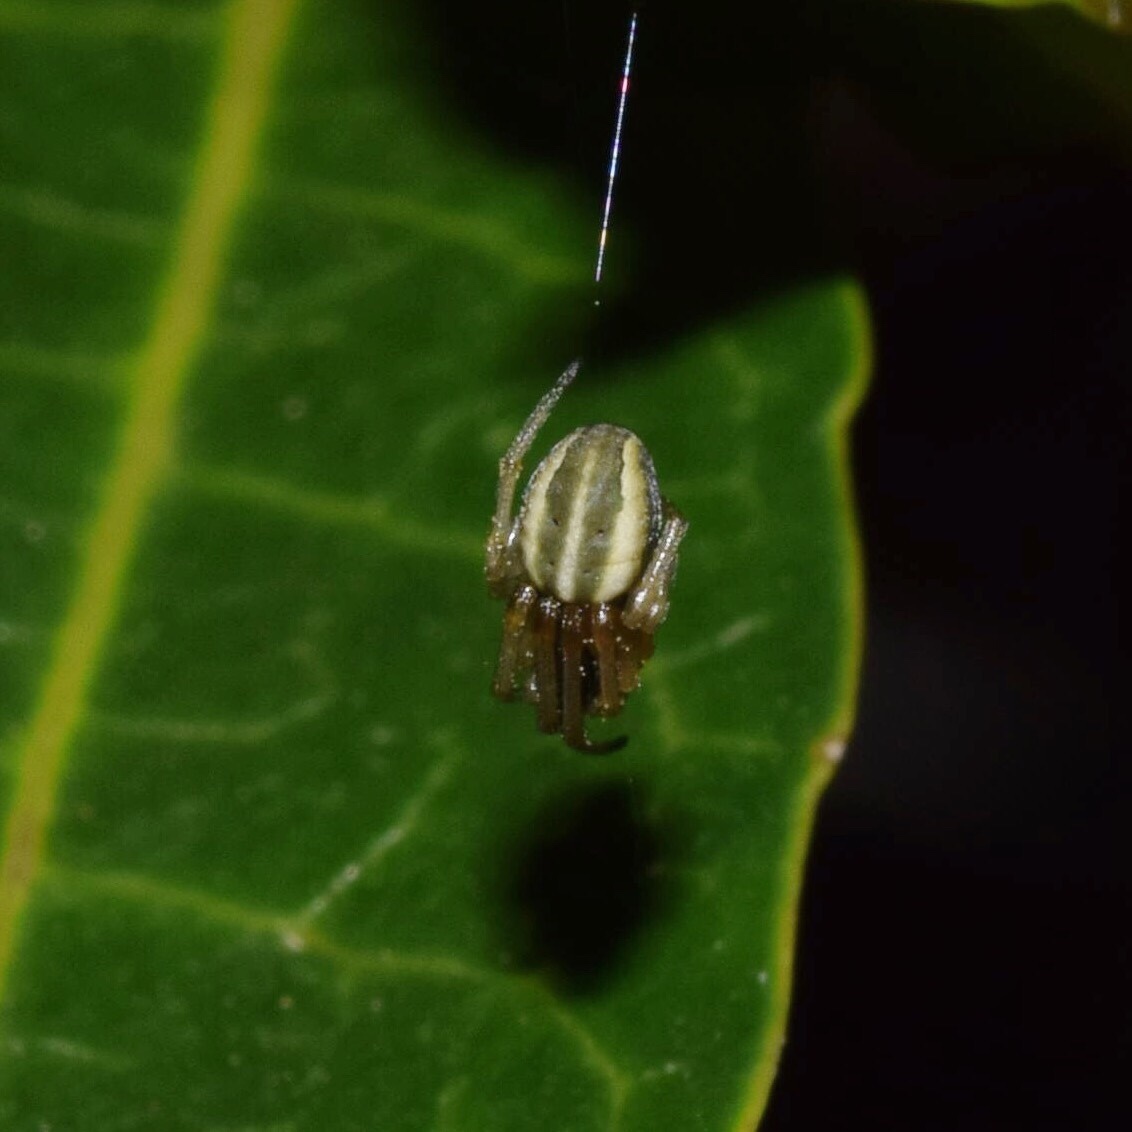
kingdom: Animalia
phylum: Arthropoda
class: Arachnida
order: Araneae
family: Araneidae
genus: Singa
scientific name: Singa albodorsata
